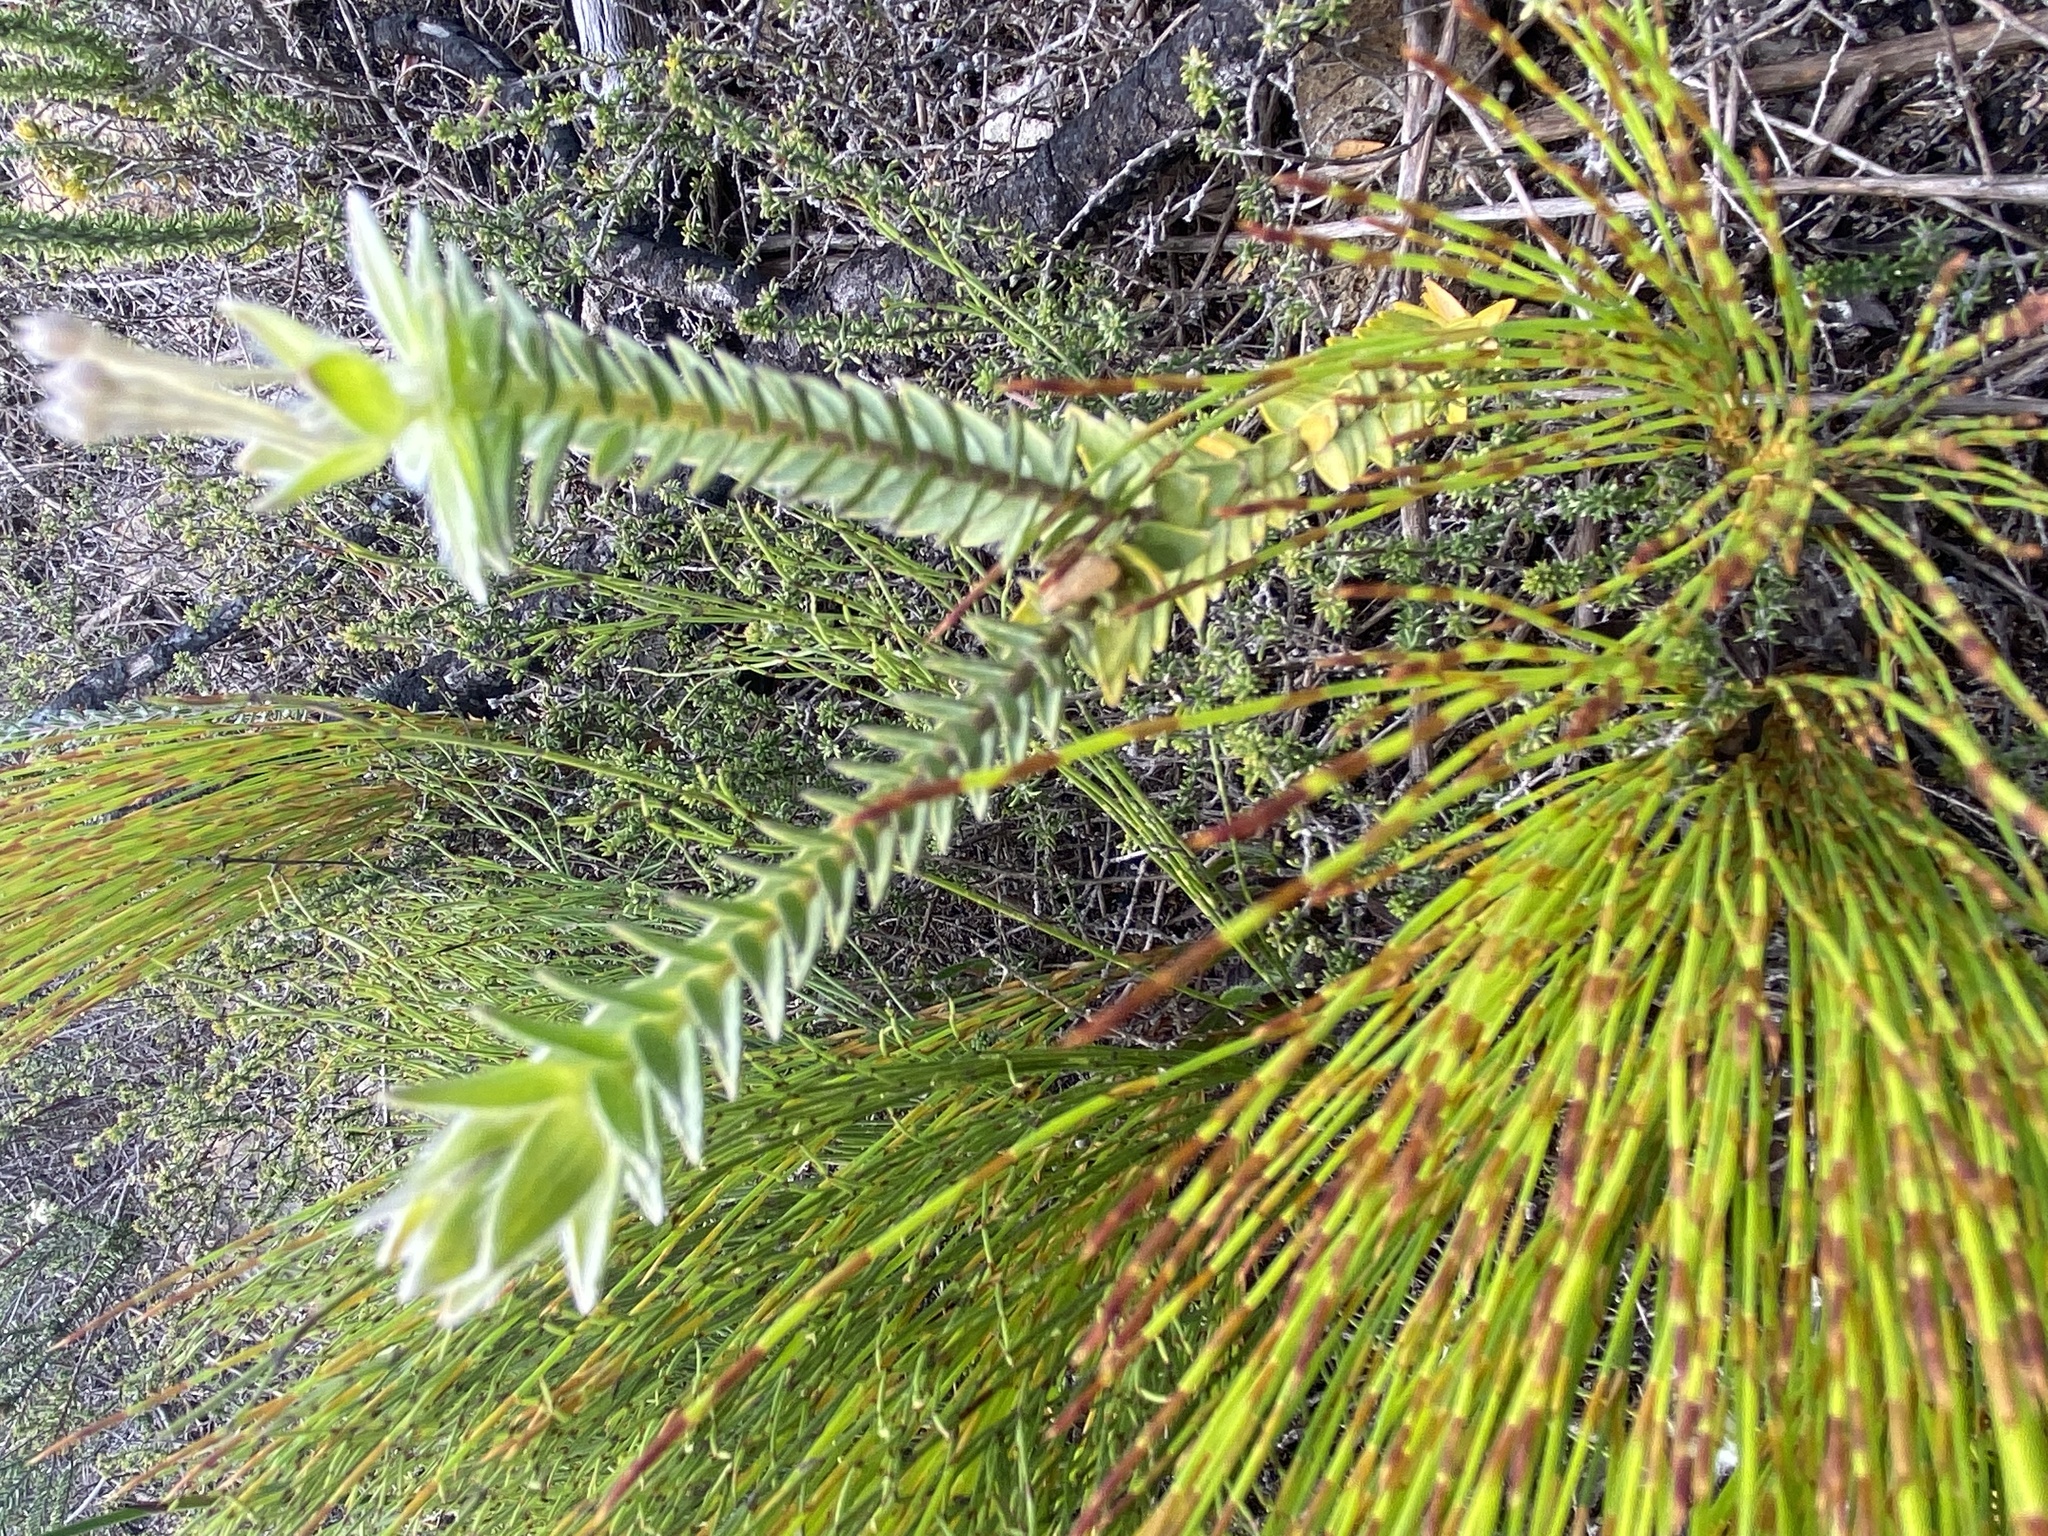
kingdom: Plantae
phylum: Tracheophyta
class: Magnoliopsida
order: Malvales
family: Thymelaeaceae
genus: Gnidia
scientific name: Gnidia chrysophylla
